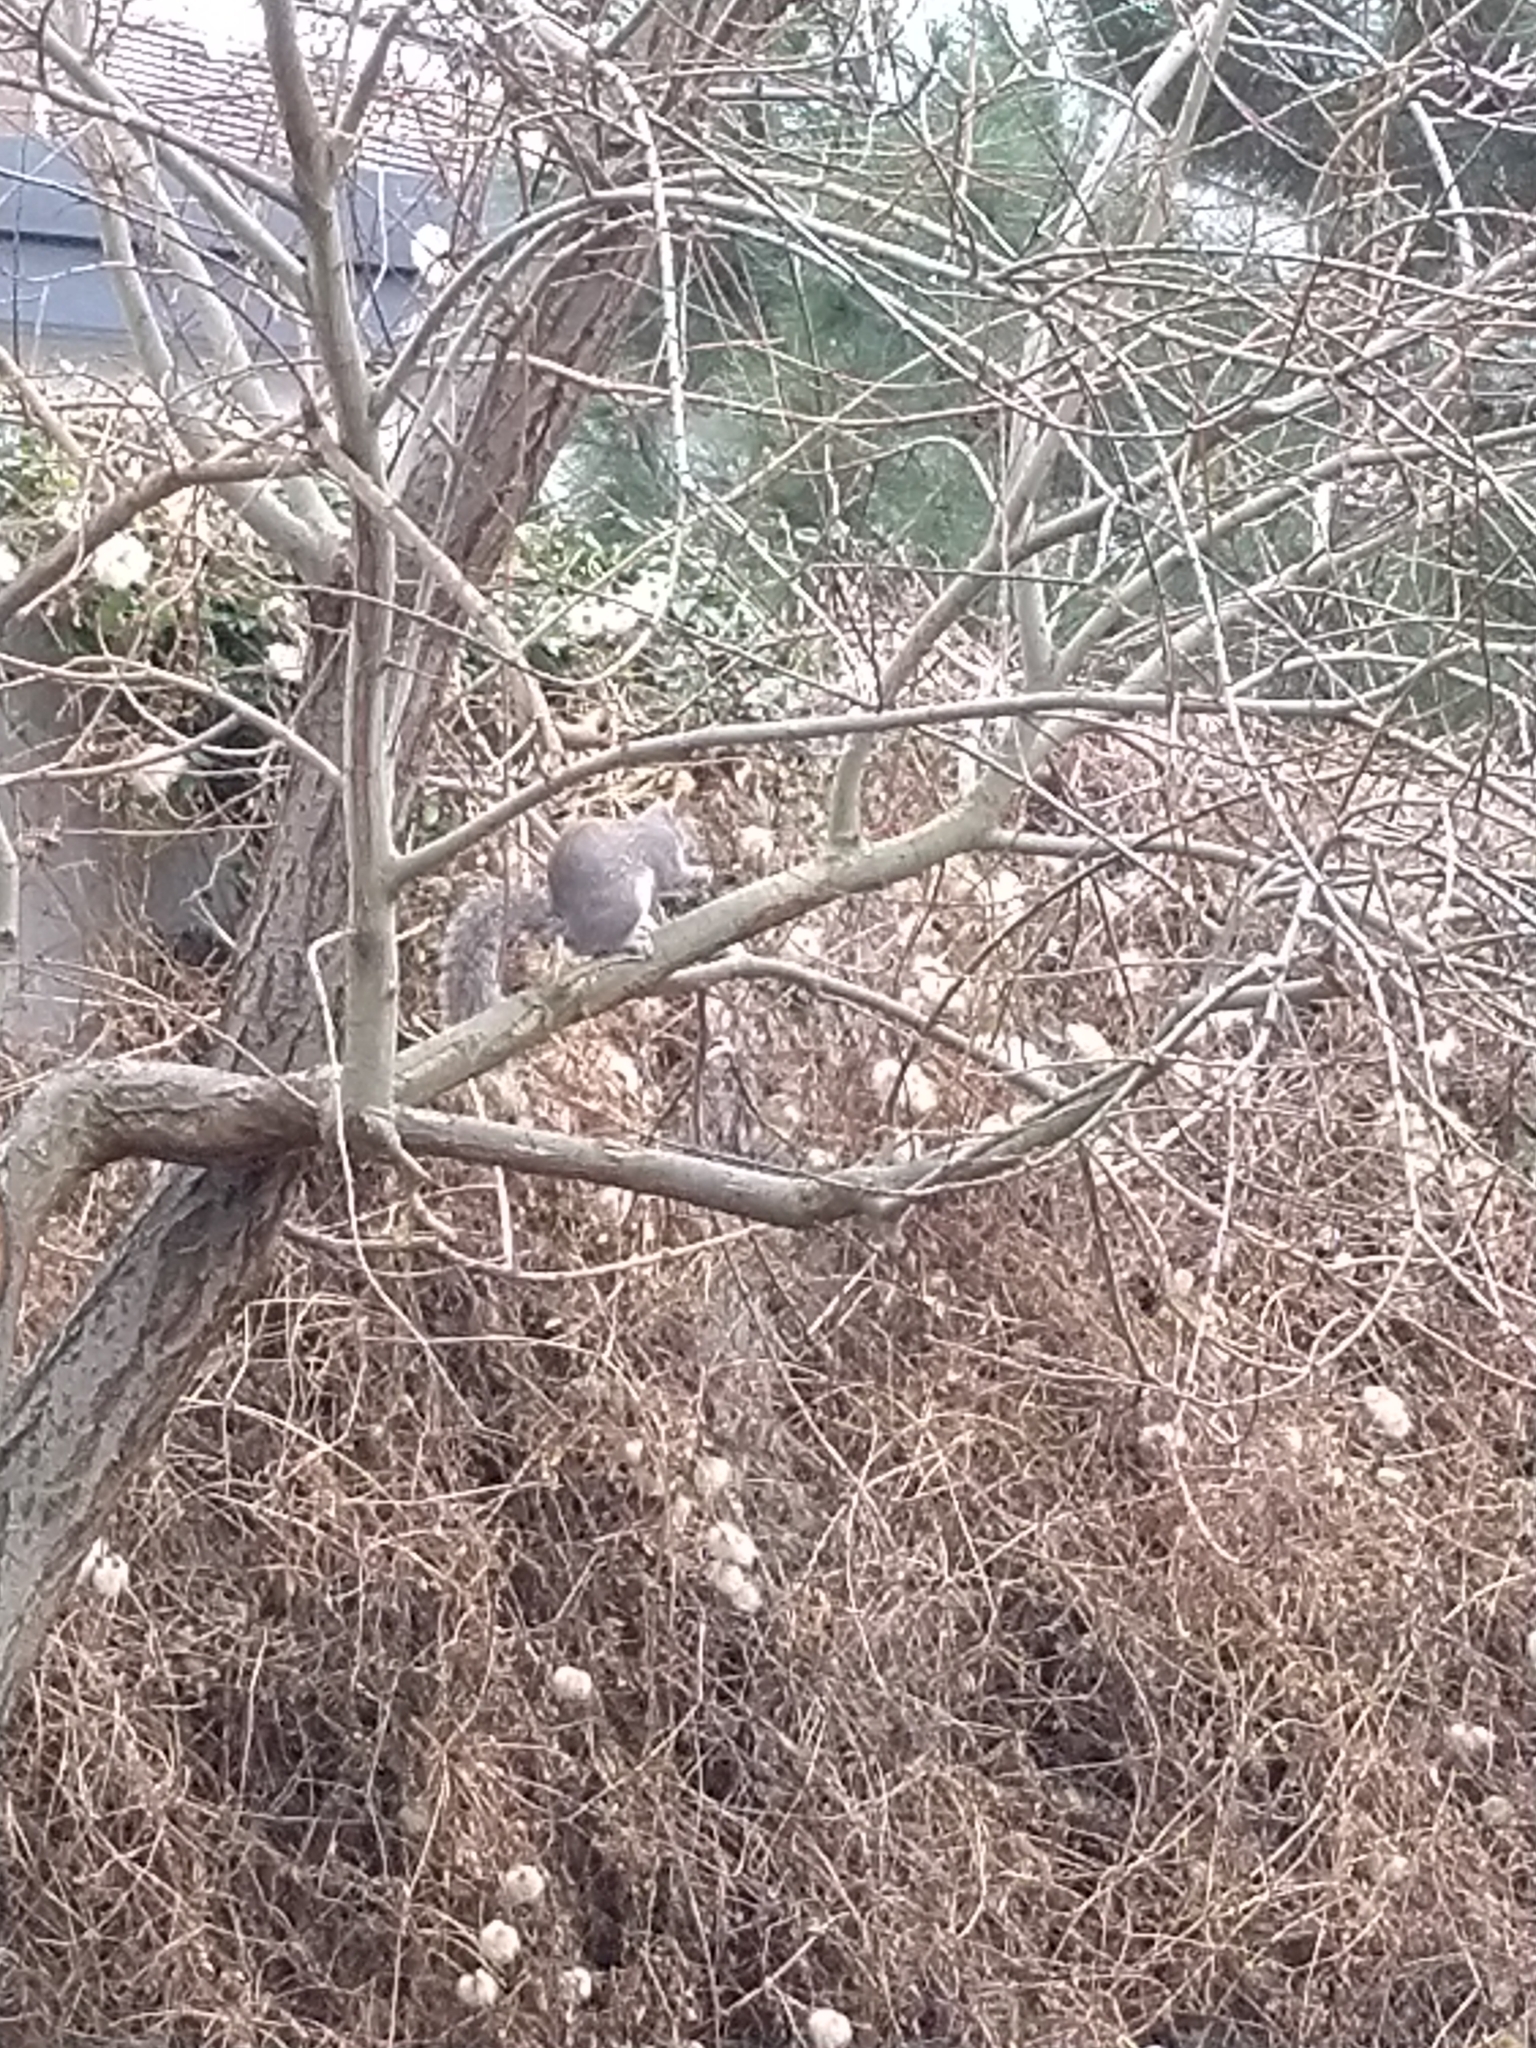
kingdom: Animalia
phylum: Chordata
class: Mammalia
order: Rodentia
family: Sciuridae
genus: Sciurus
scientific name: Sciurus carolinensis
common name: Eastern gray squirrel
